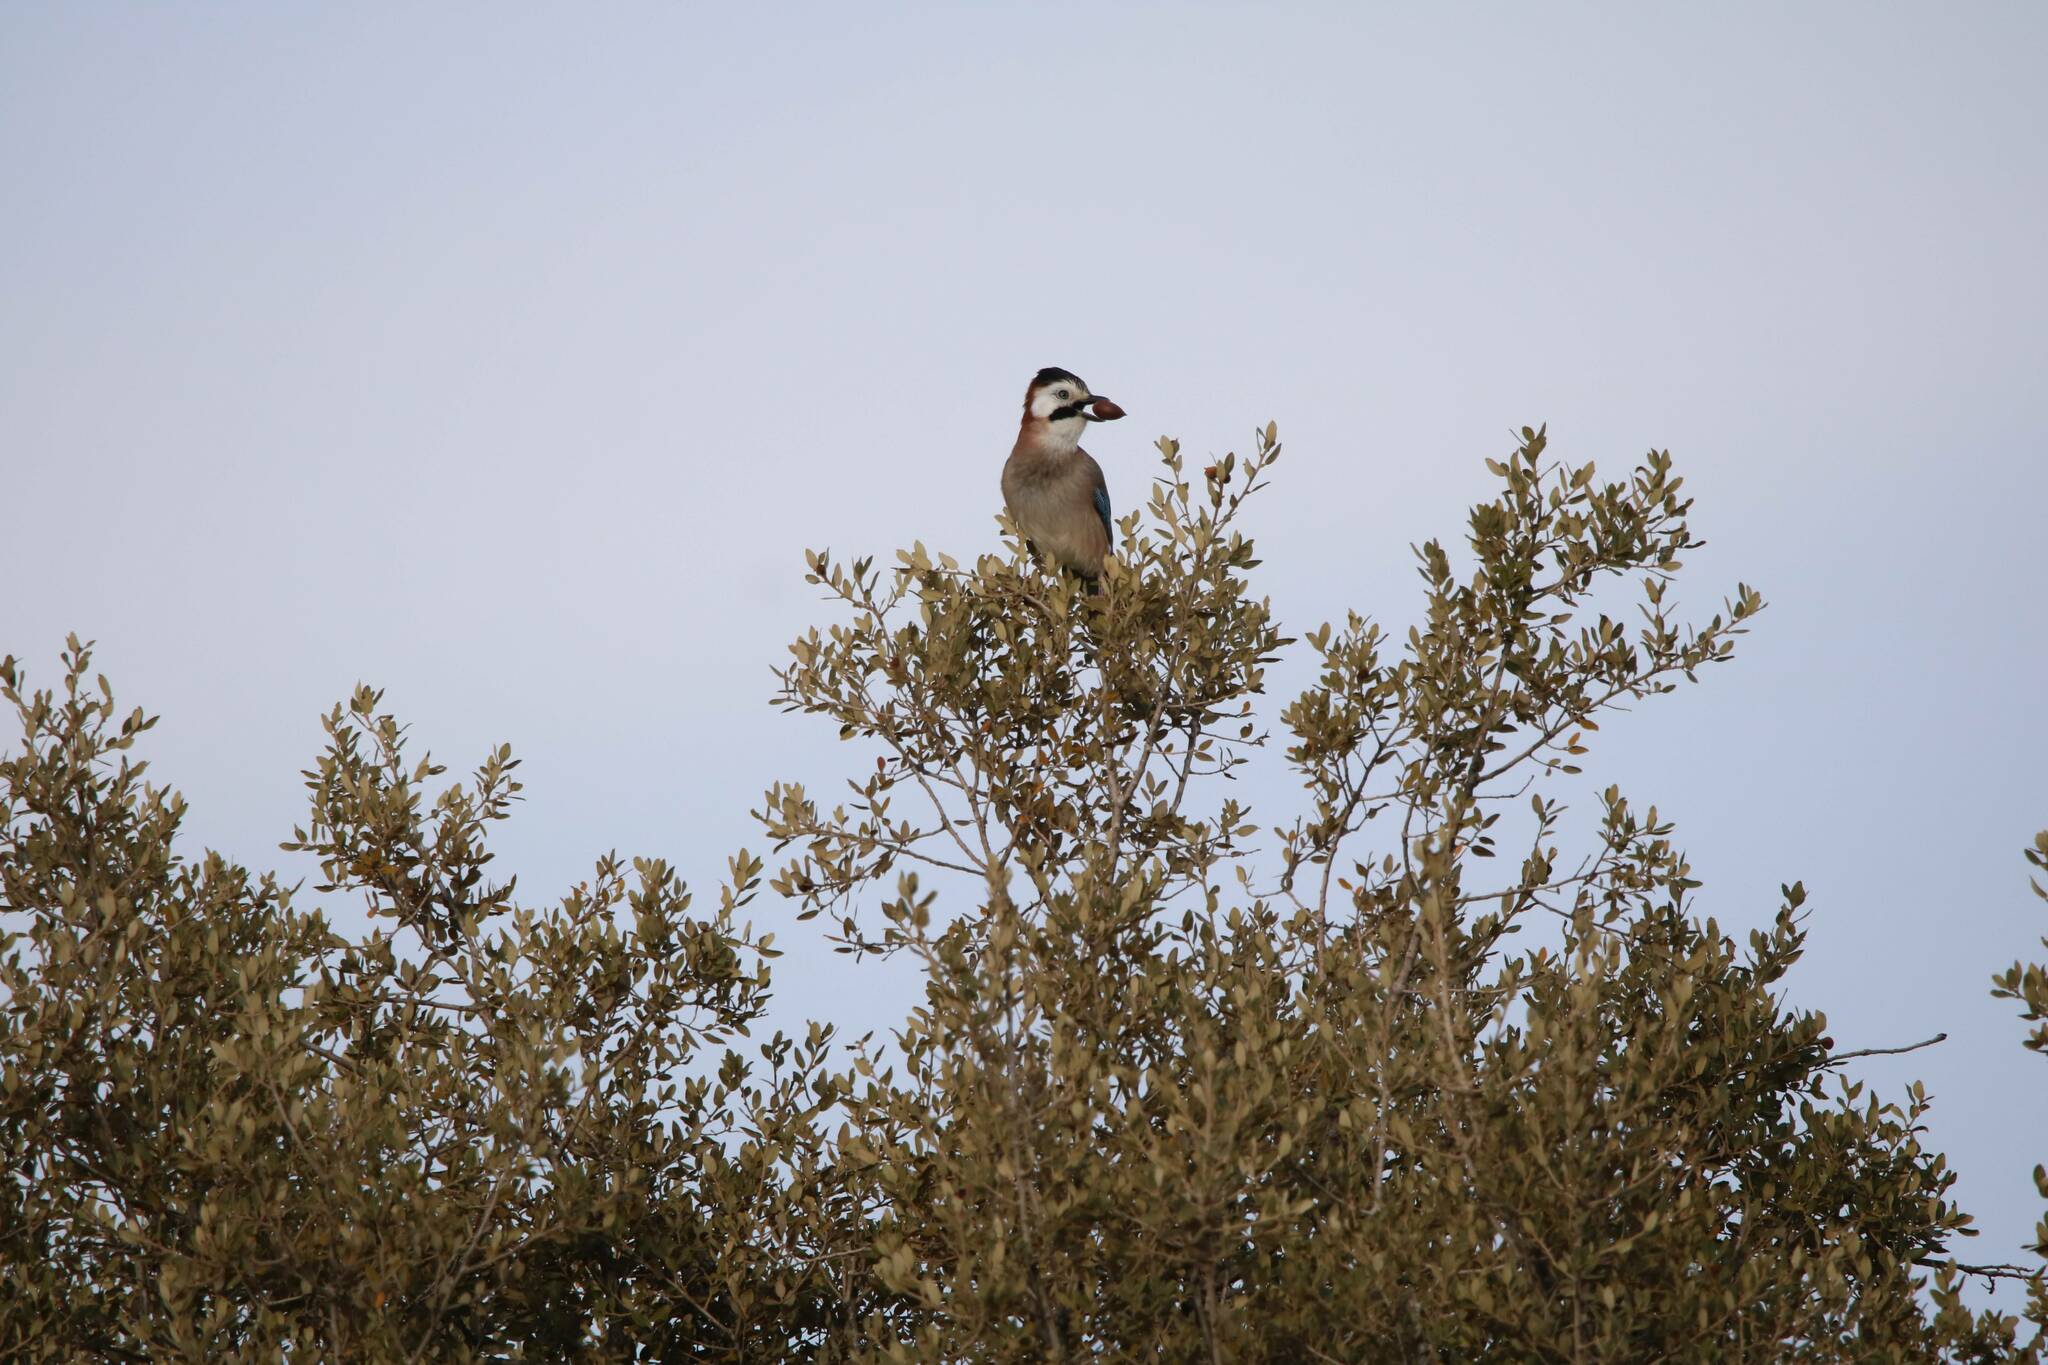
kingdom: Animalia
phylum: Chordata
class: Aves
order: Passeriformes
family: Corvidae
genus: Garrulus
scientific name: Garrulus glandarius
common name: Eurasian jay
